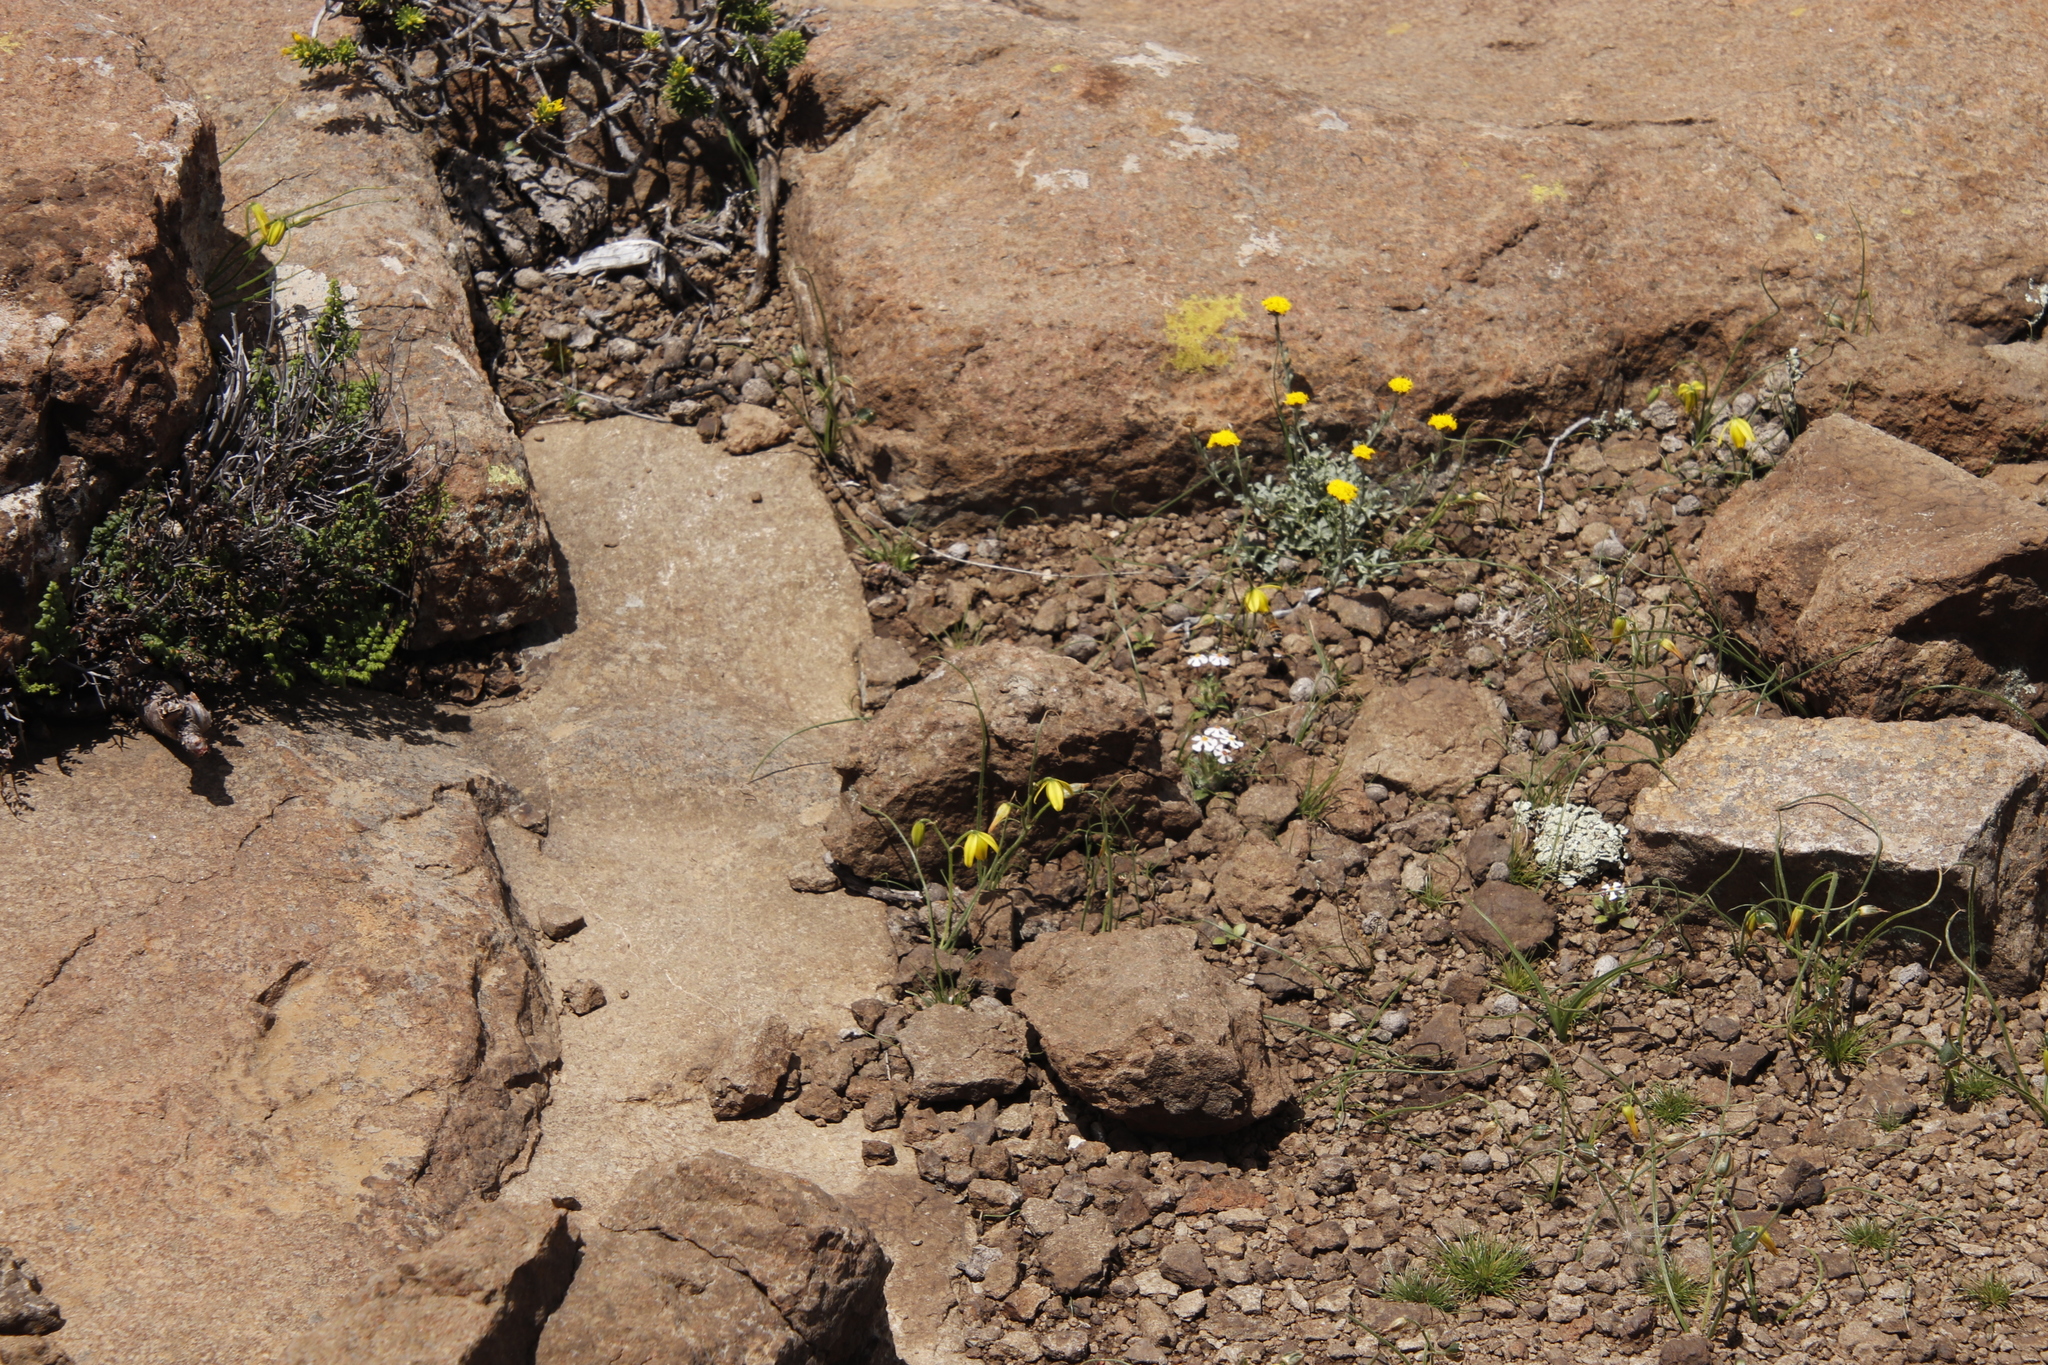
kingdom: Plantae
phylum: Tracheophyta
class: Liliopsida
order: Asparagales
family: Asparagaceae
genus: Albuca
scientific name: Albuca shawii
